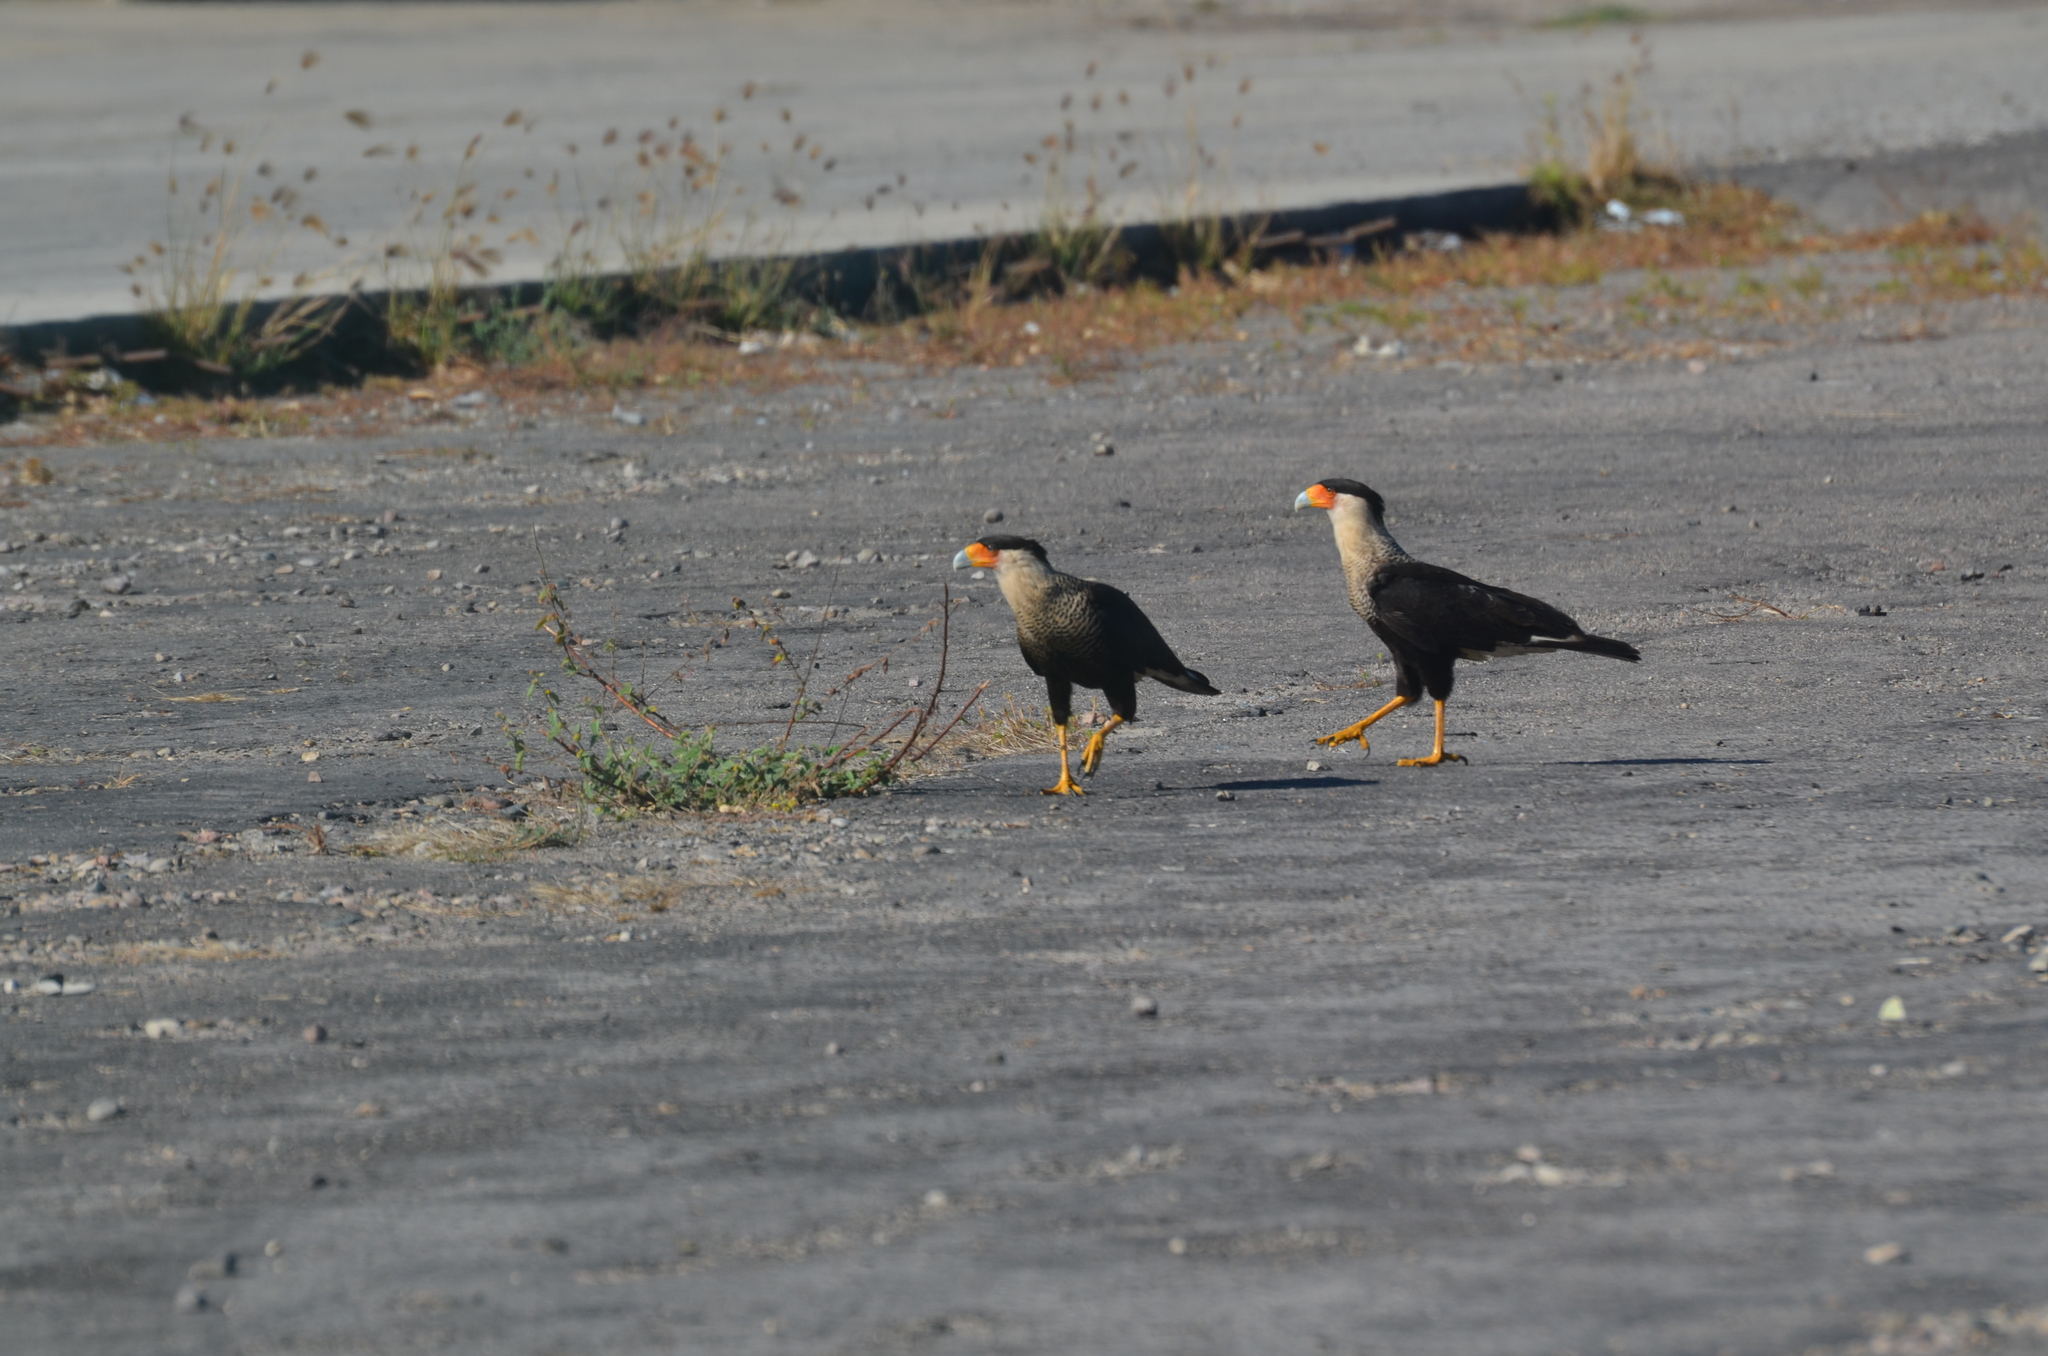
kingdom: Animalia
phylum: Chordata
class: Aves
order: Falconiformes
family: Falconidae
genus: Caracara
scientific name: Caracara plancus
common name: Southern caracara
